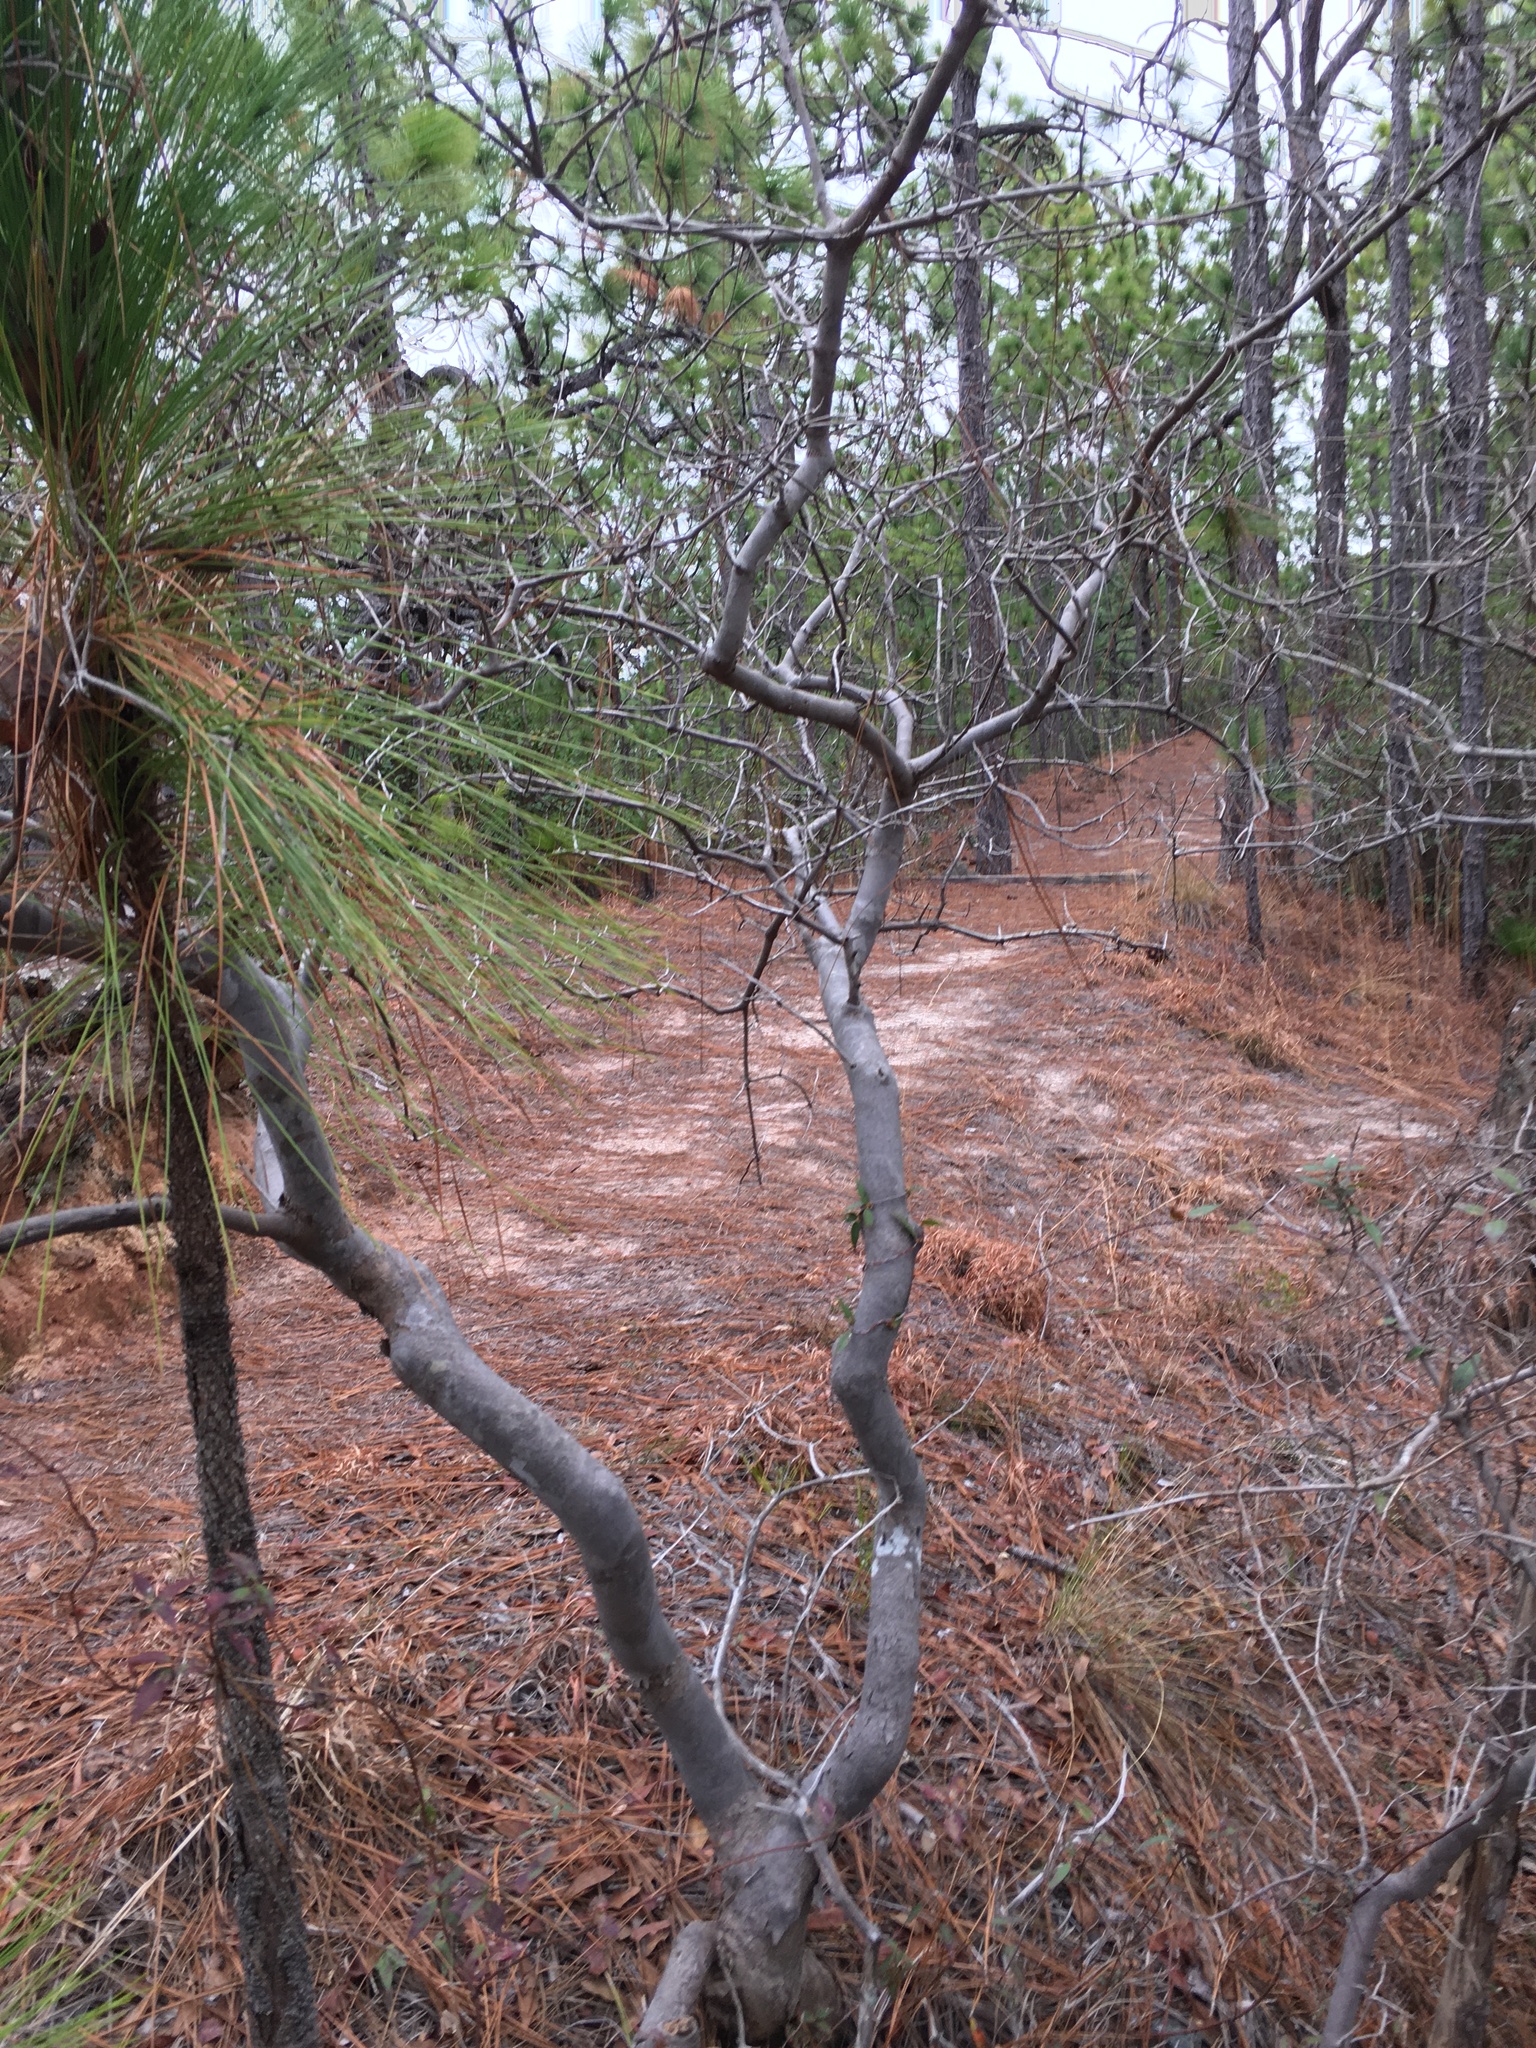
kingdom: Plantae
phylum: Tracheophyta
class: Magnoliopsida
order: Ericales
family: Cyrillaceae
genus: Cyrilla
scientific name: Cyrilla racemiflora
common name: Black titi
